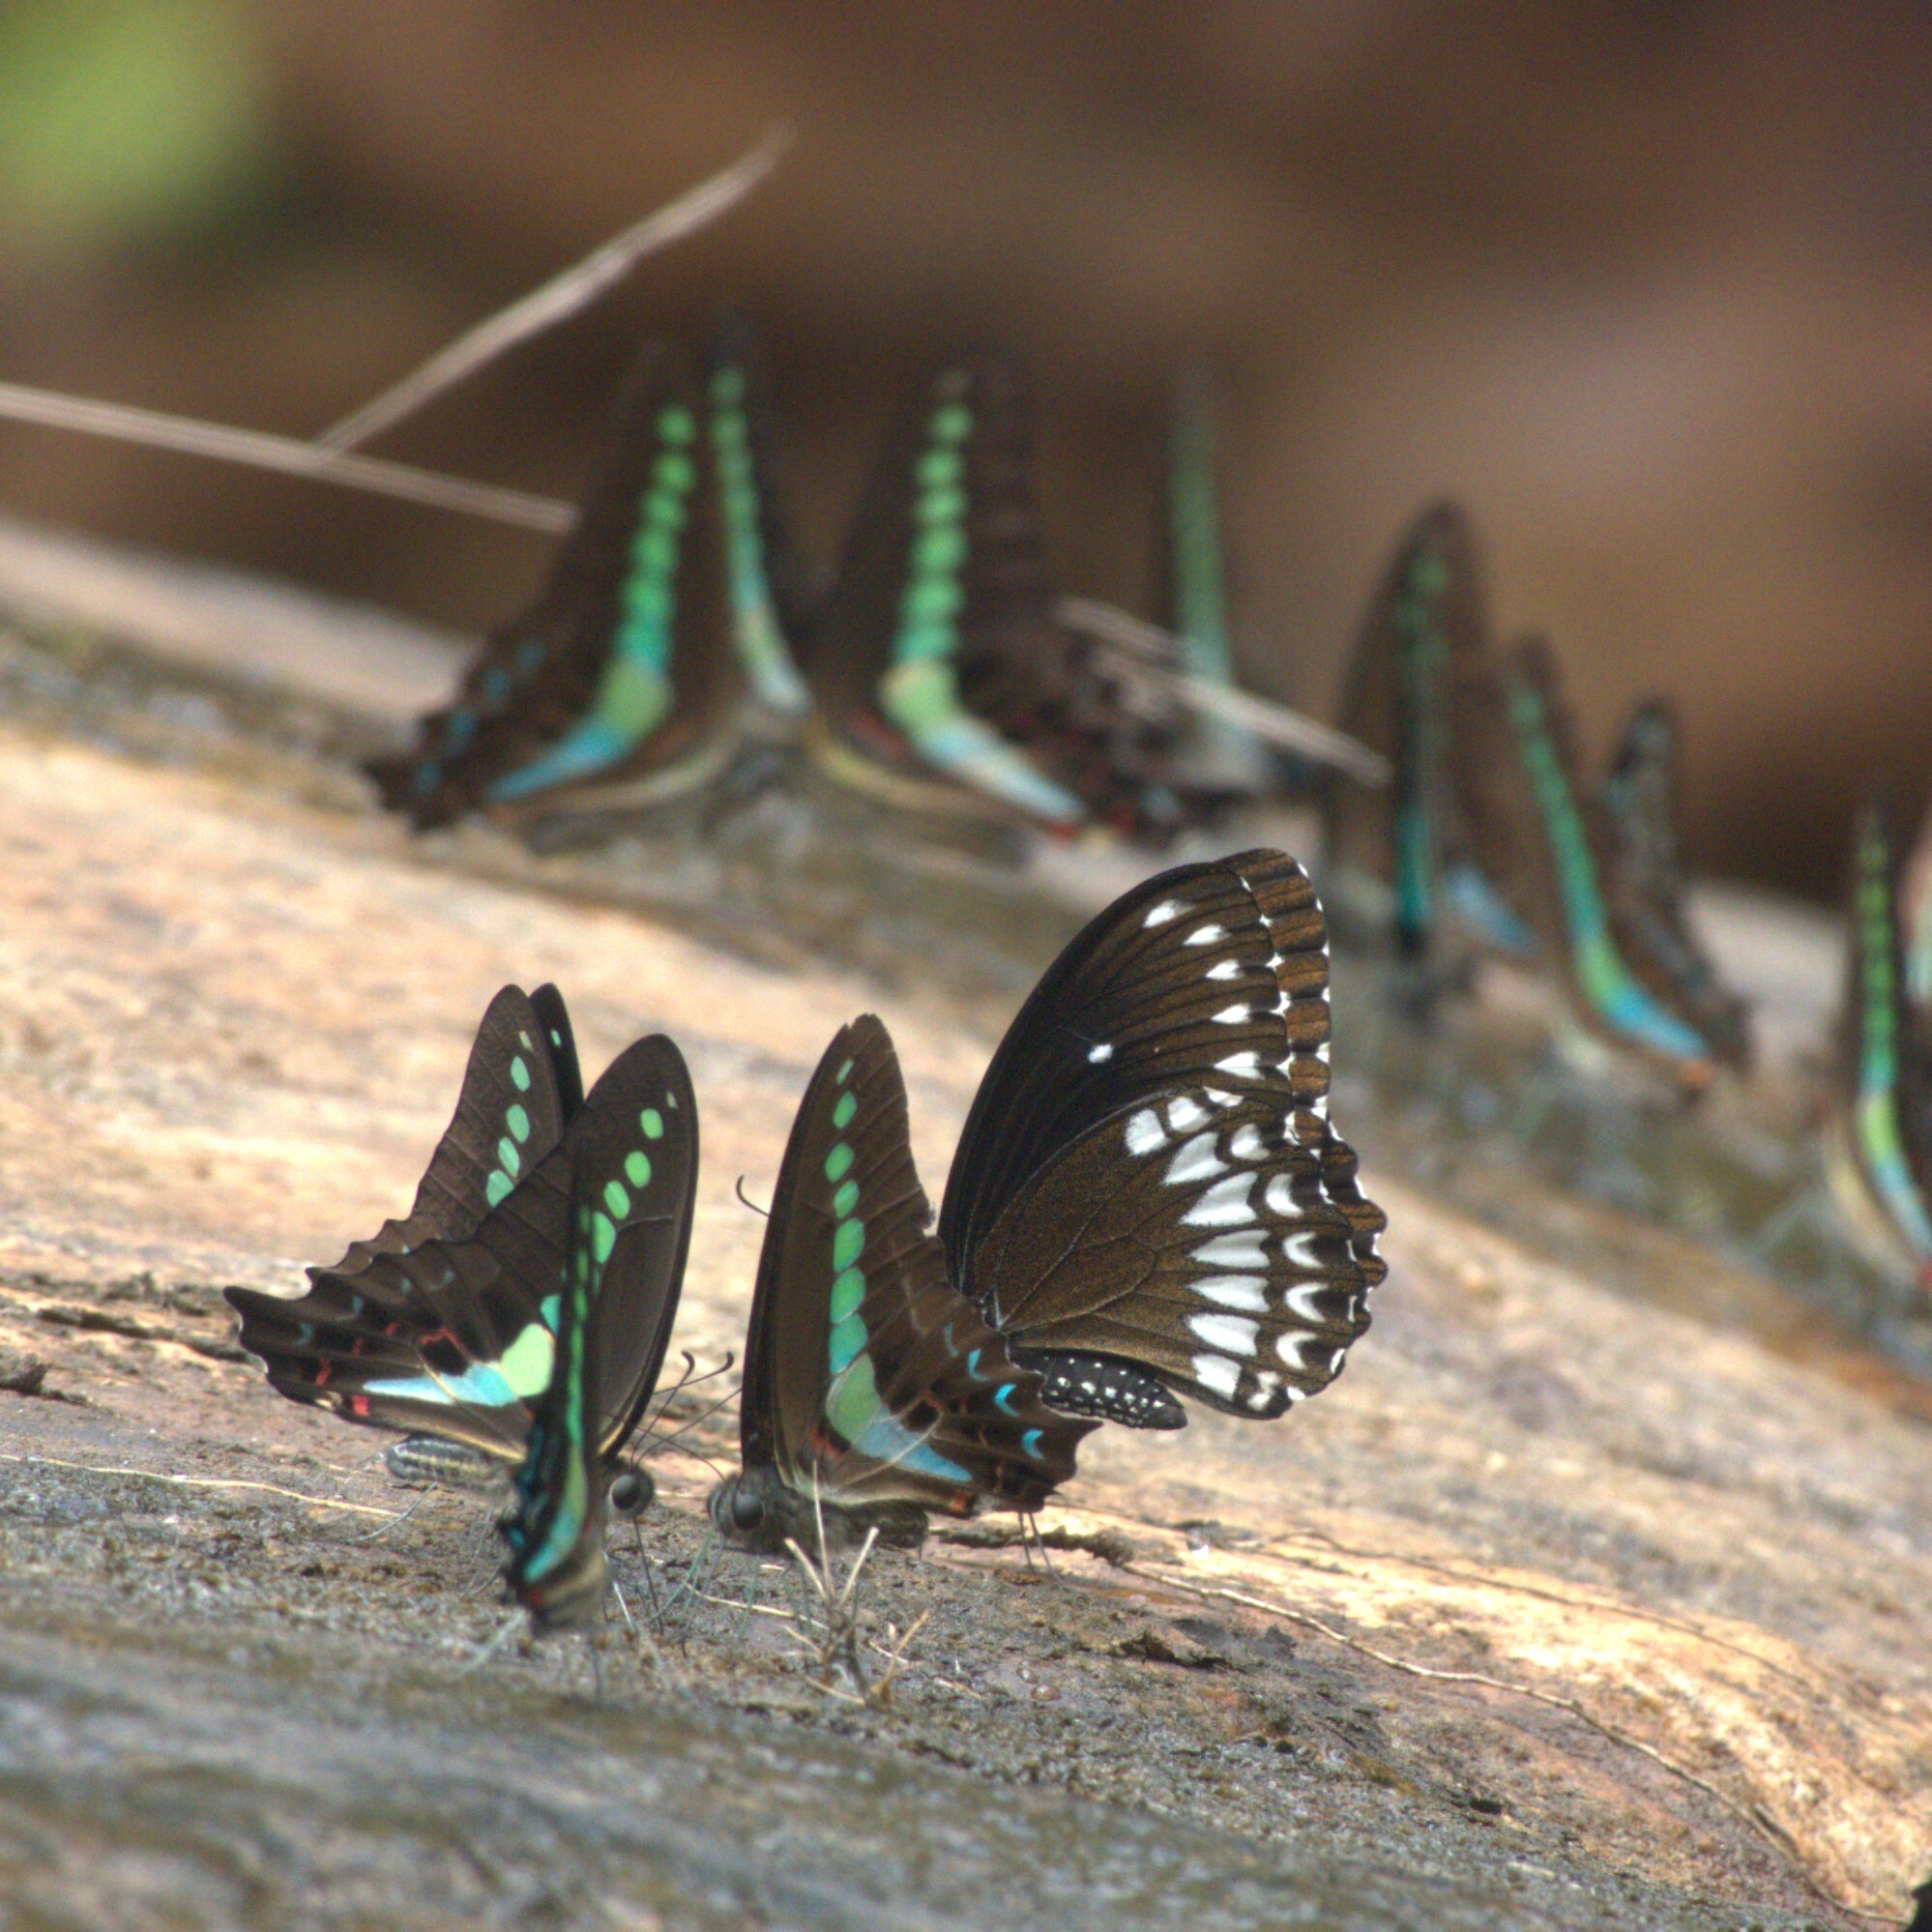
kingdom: Animalia
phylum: Arthropoda
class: Insecta
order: Lepidoptera
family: Papilionidae
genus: Papilio
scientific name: Papilio dravidarum
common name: Malabar raven
